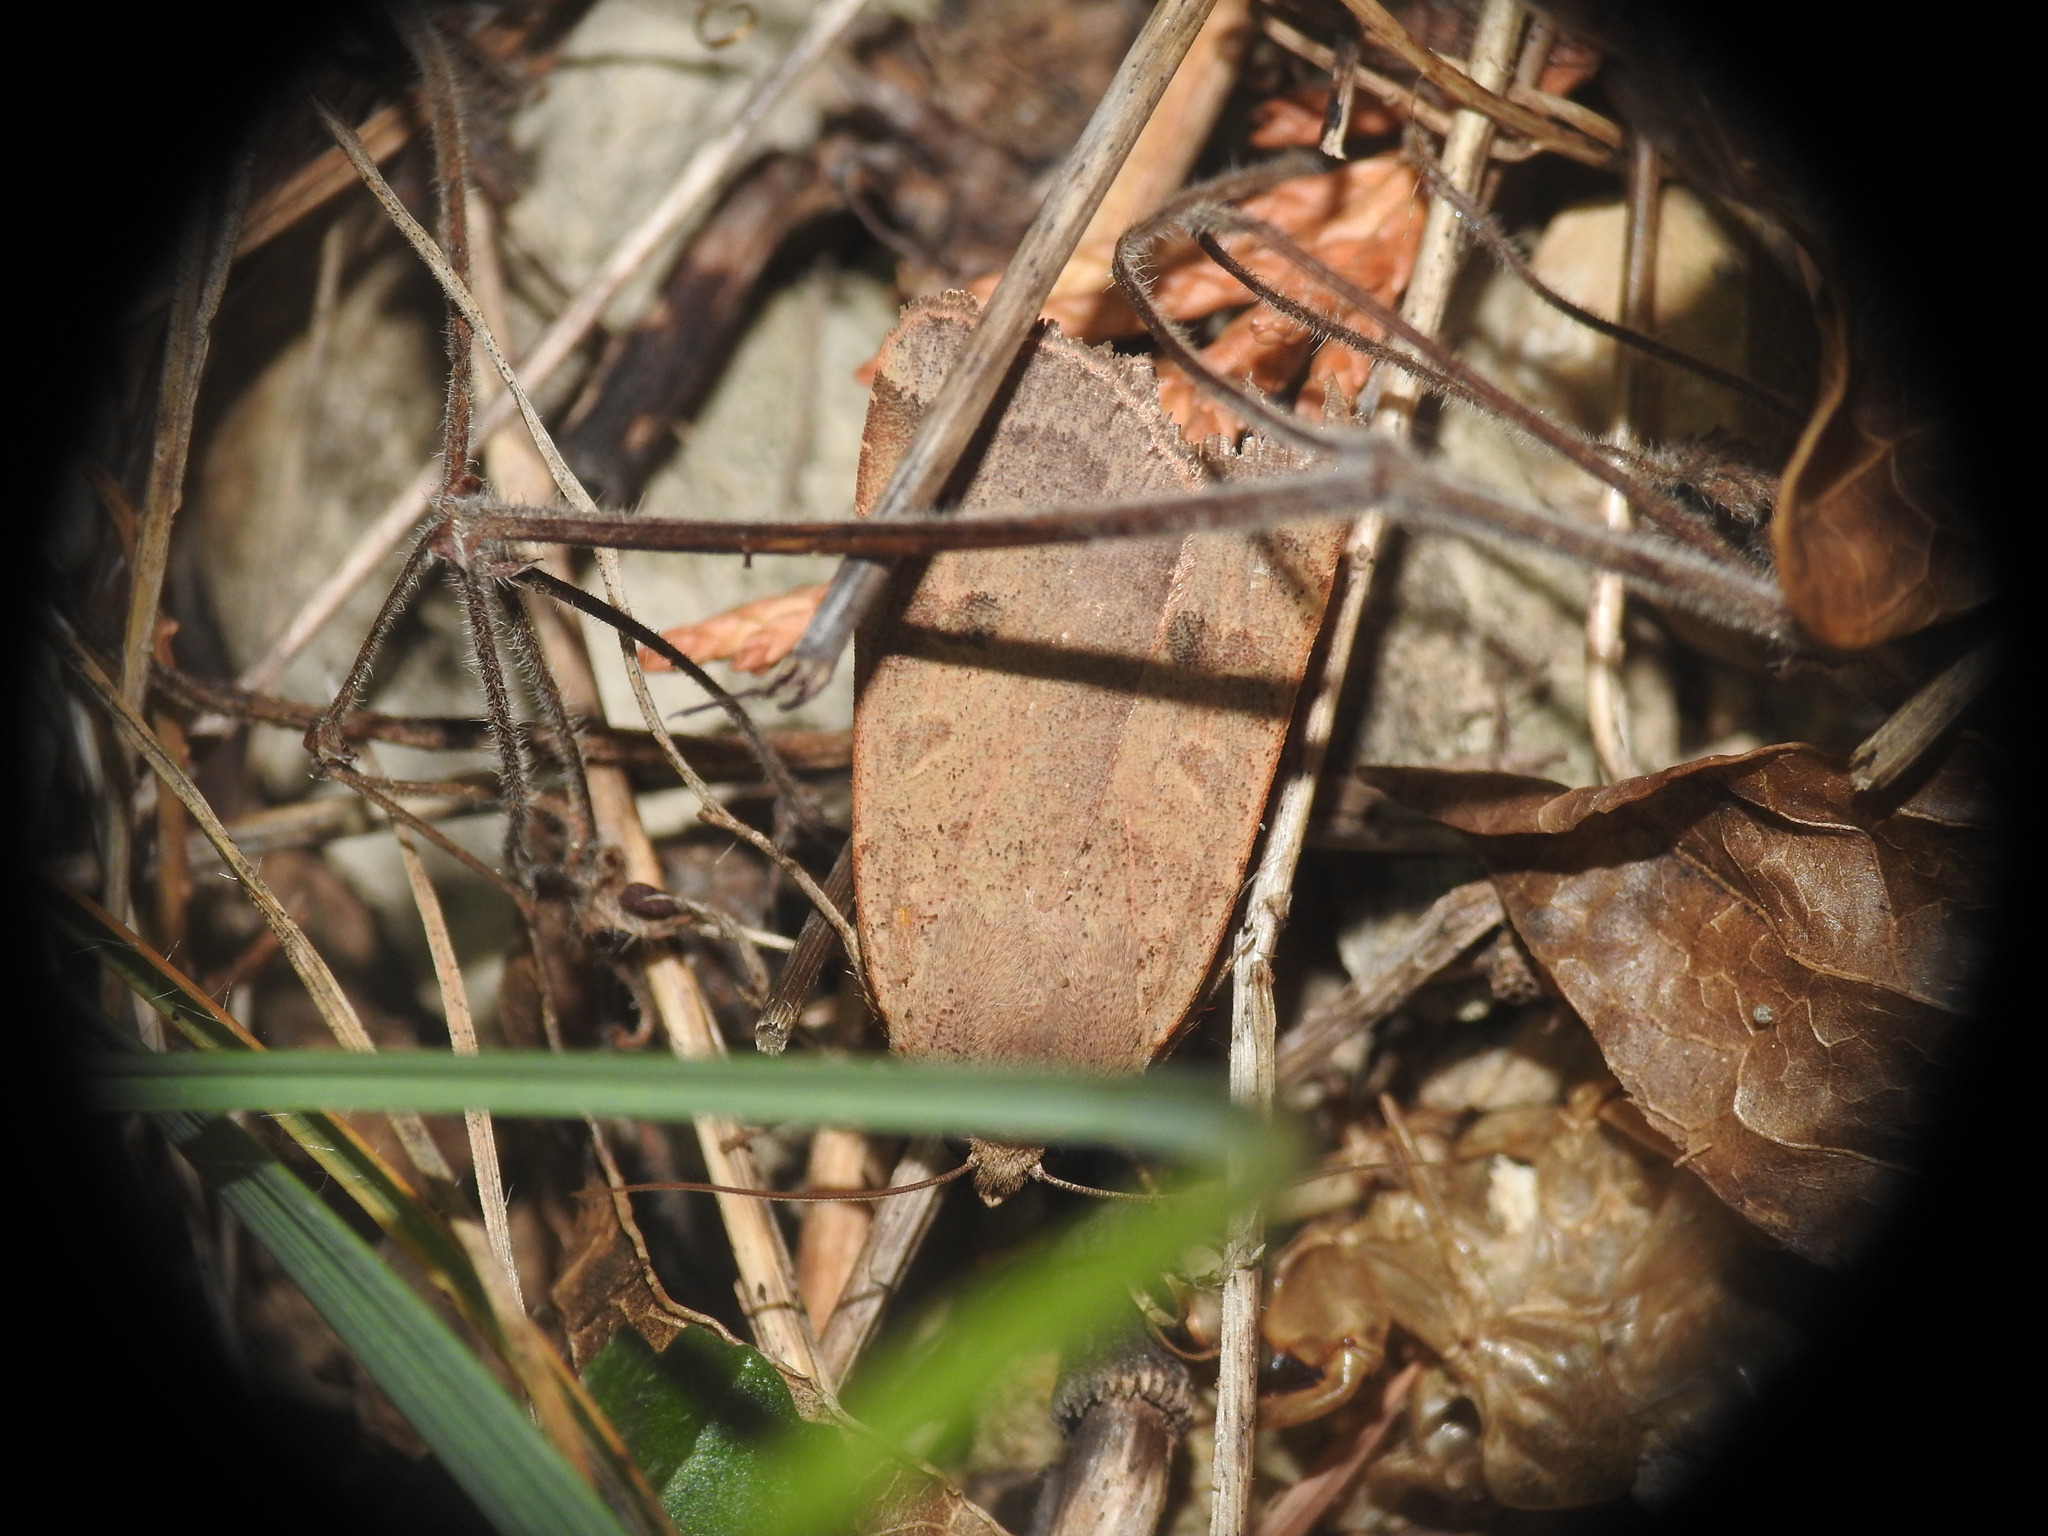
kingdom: Animalia
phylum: Arthropoda
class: Insecta
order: Lepidoptera
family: Noctuidae
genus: Noctua
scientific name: Noctua comes
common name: Lesser yellow underwing
